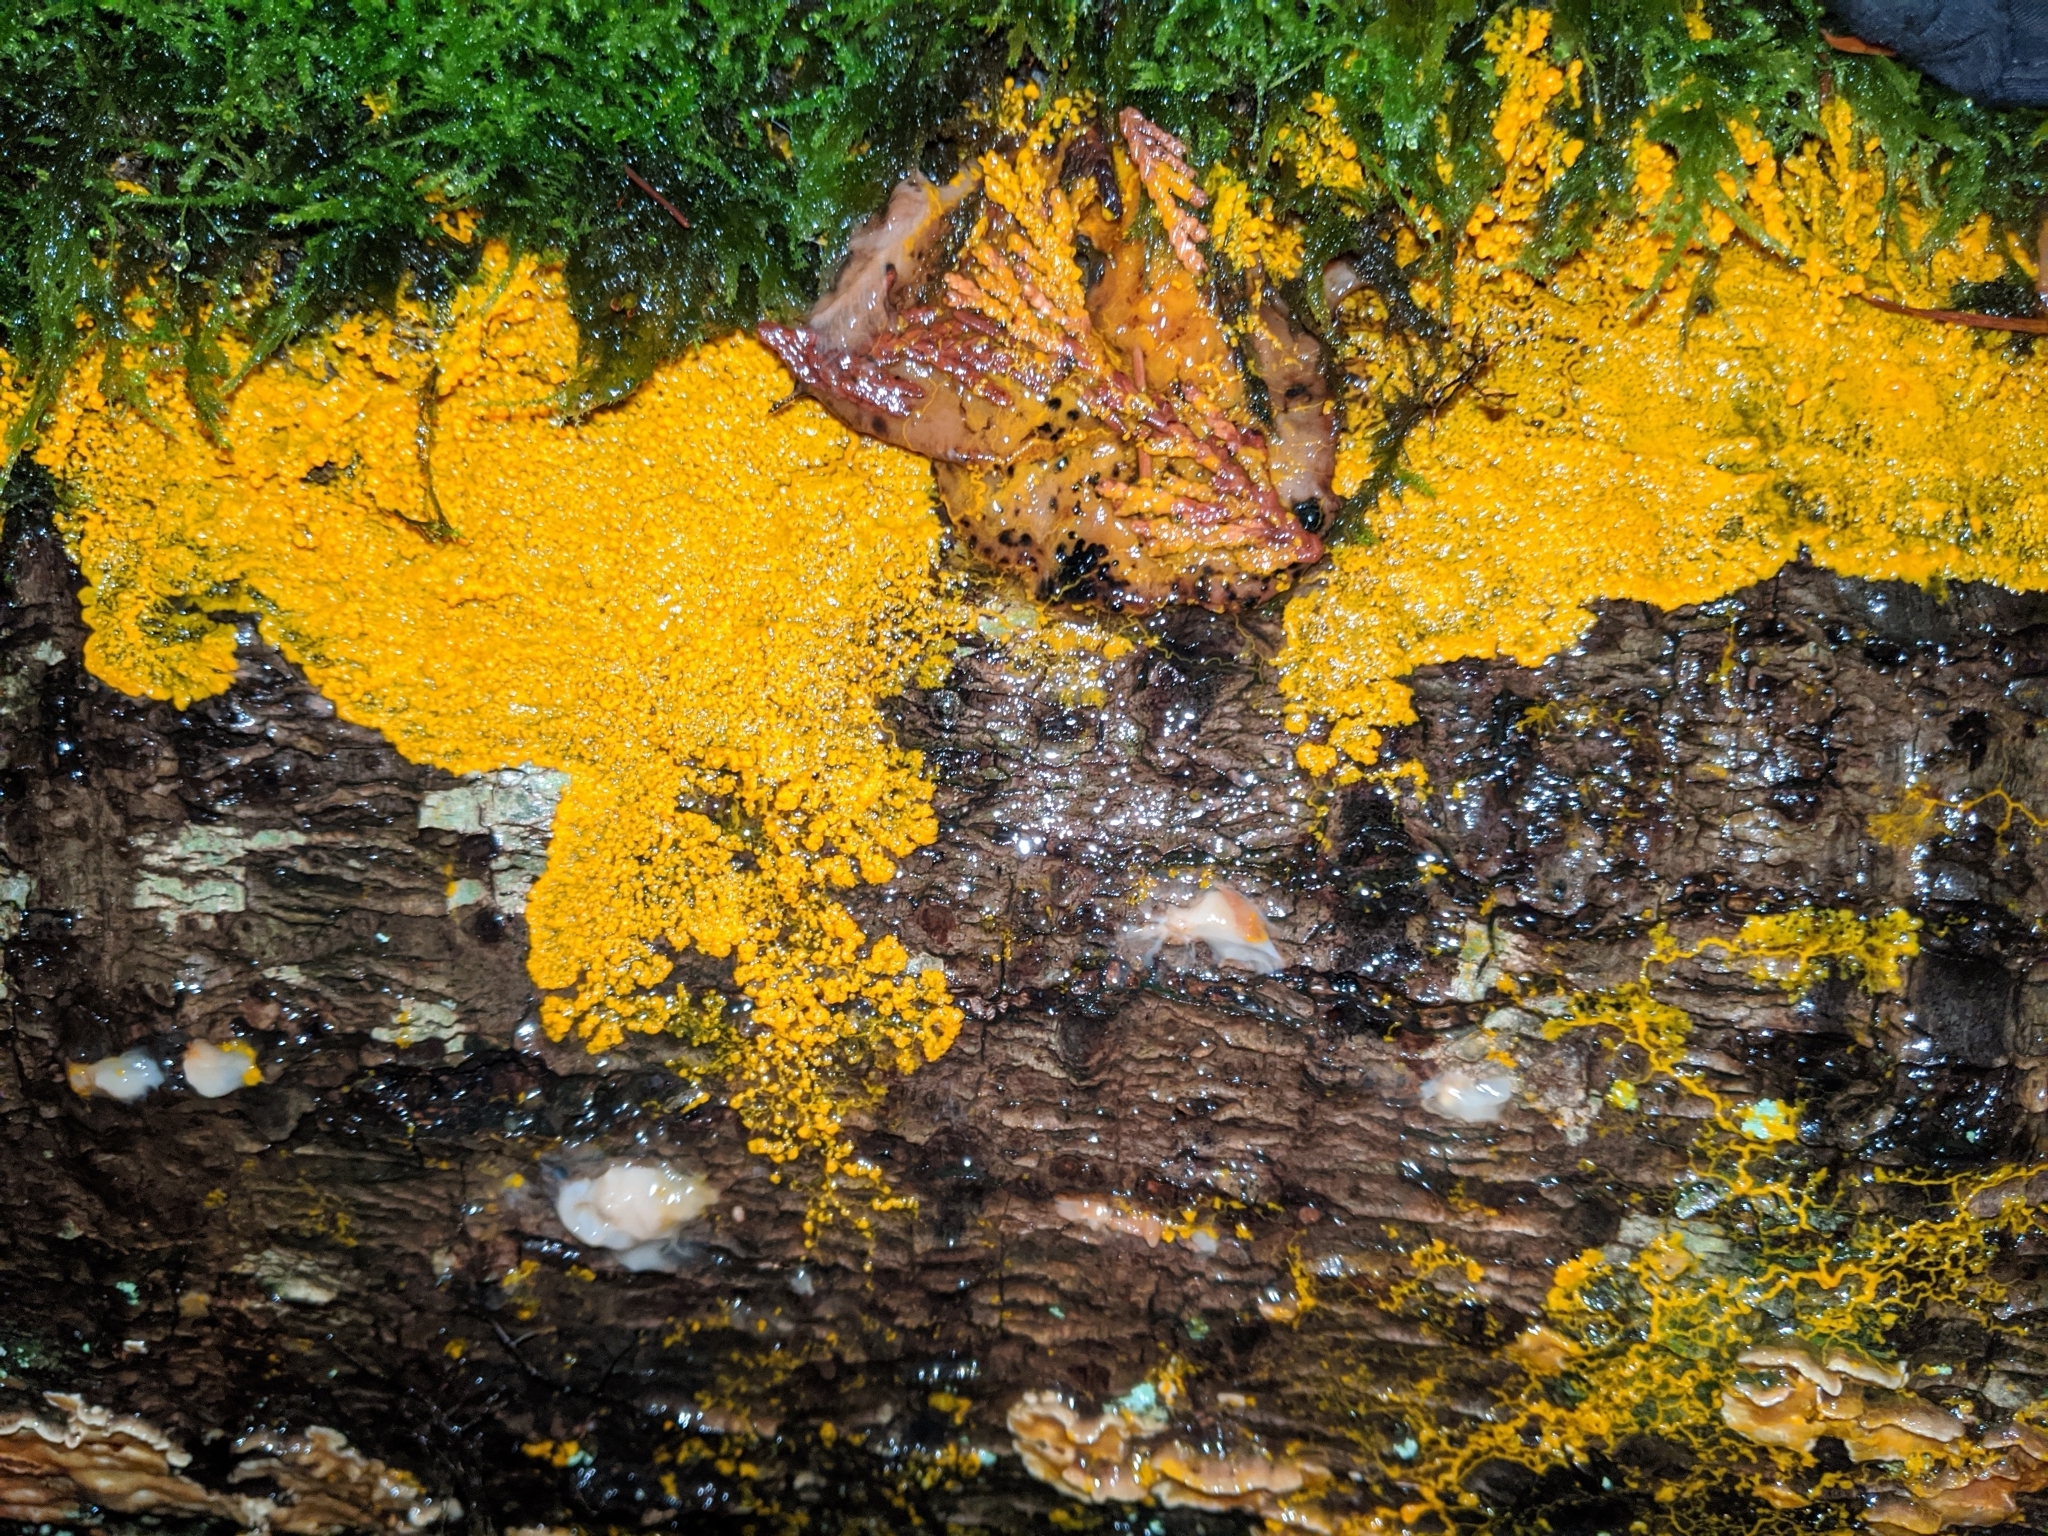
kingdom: Protozoa
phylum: Mycetozoa
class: Myxomycetes
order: Physarales
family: Physaraceae
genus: Badhamia
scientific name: Badhamia utricularis
